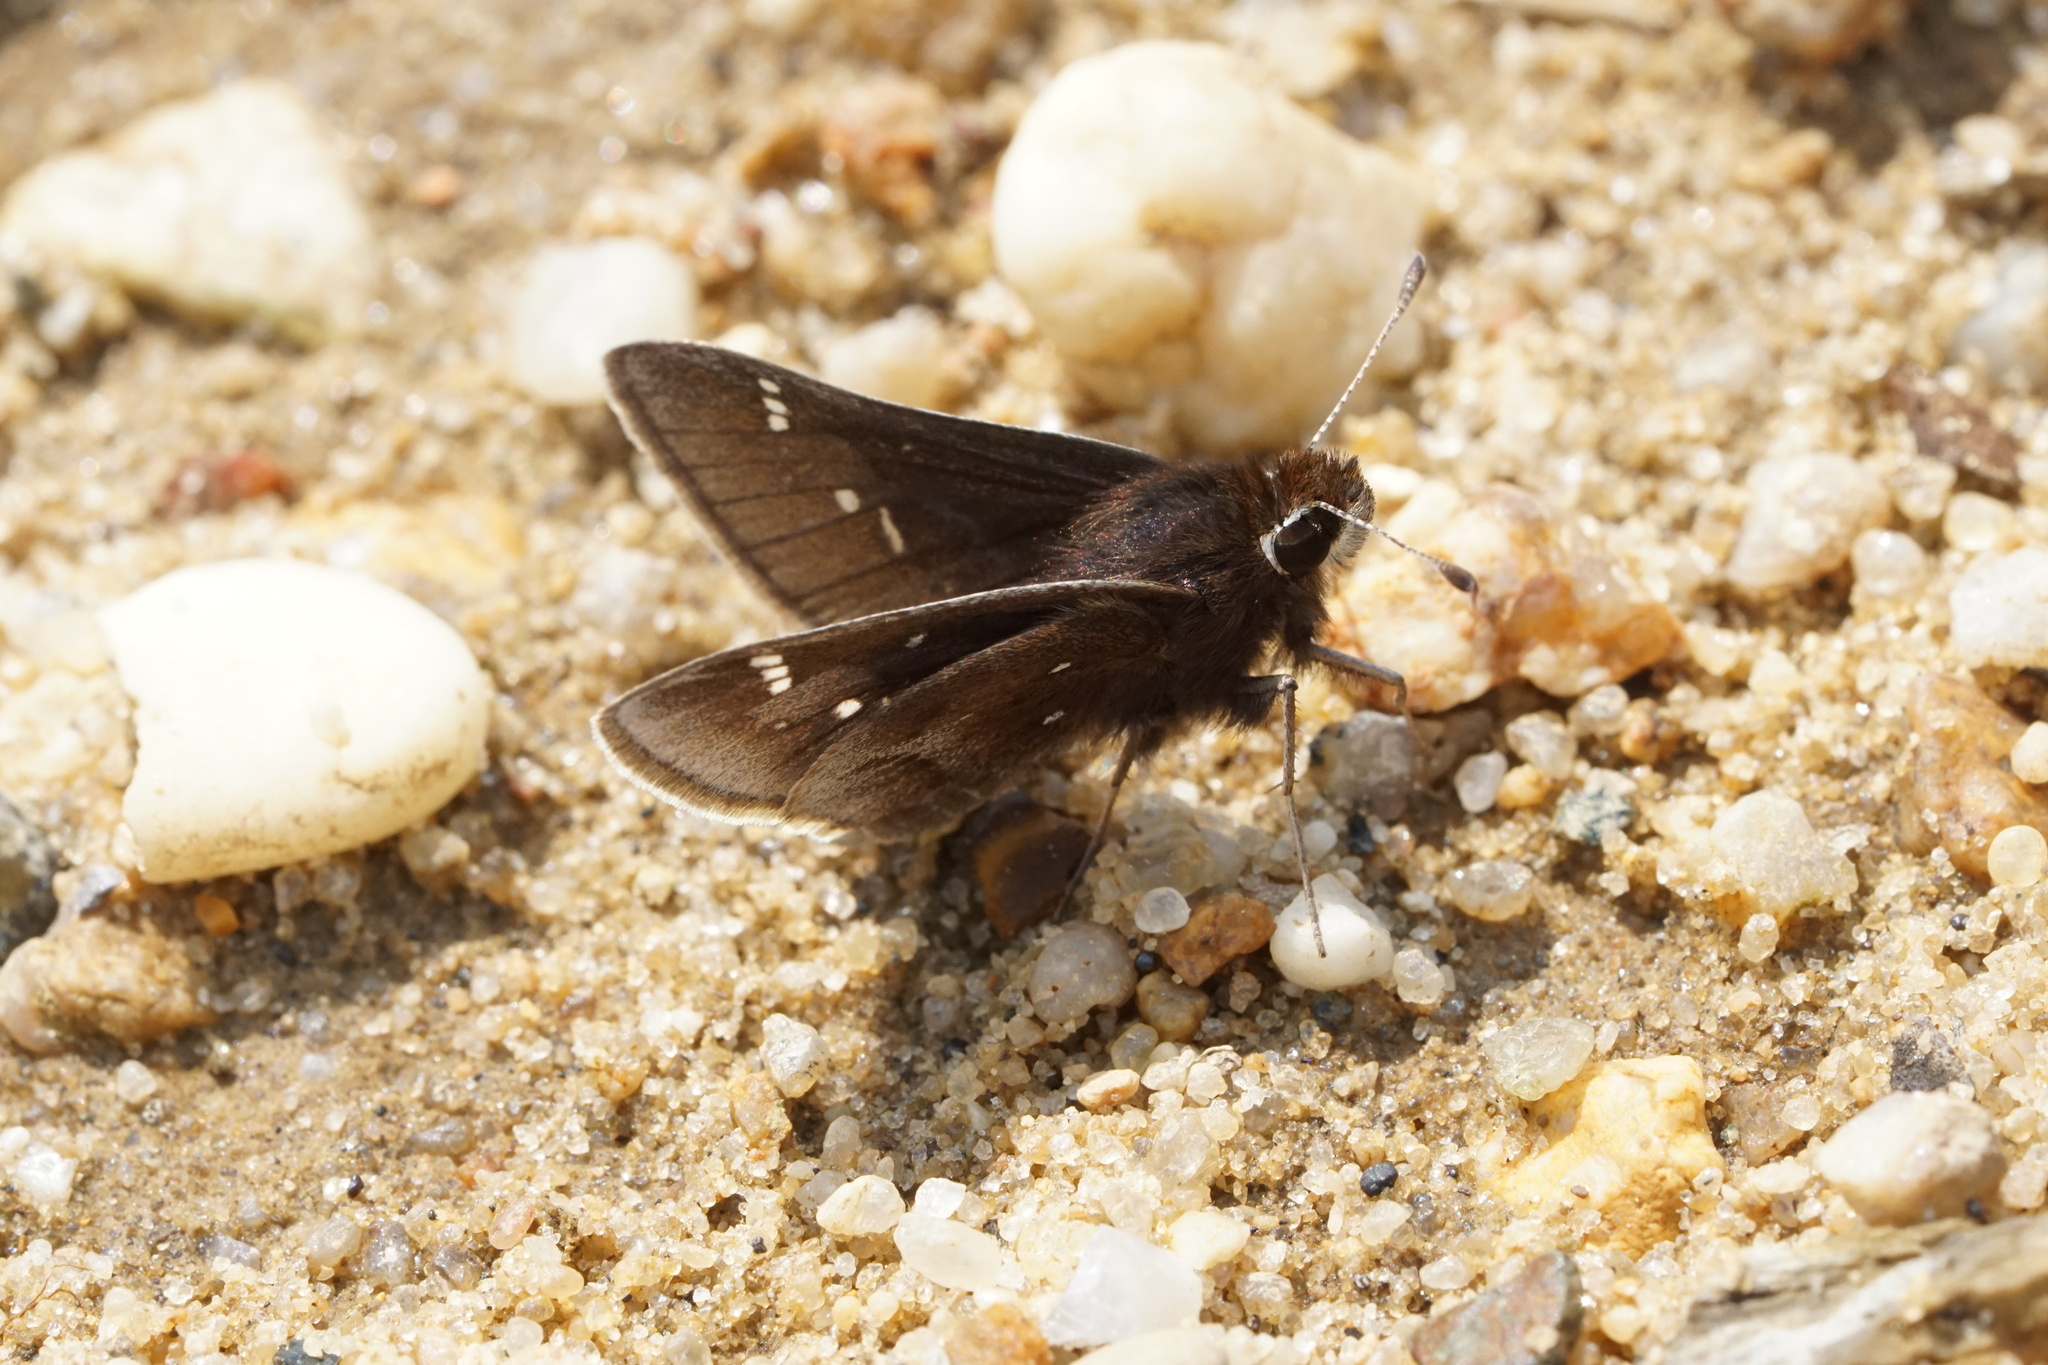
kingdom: Animalia
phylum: Arthropoda
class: Insecta
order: Lepidoptera
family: Hesperiidae
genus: Atrytonopsis
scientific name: Atrytonopsis hianna
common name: Dusted skipper
